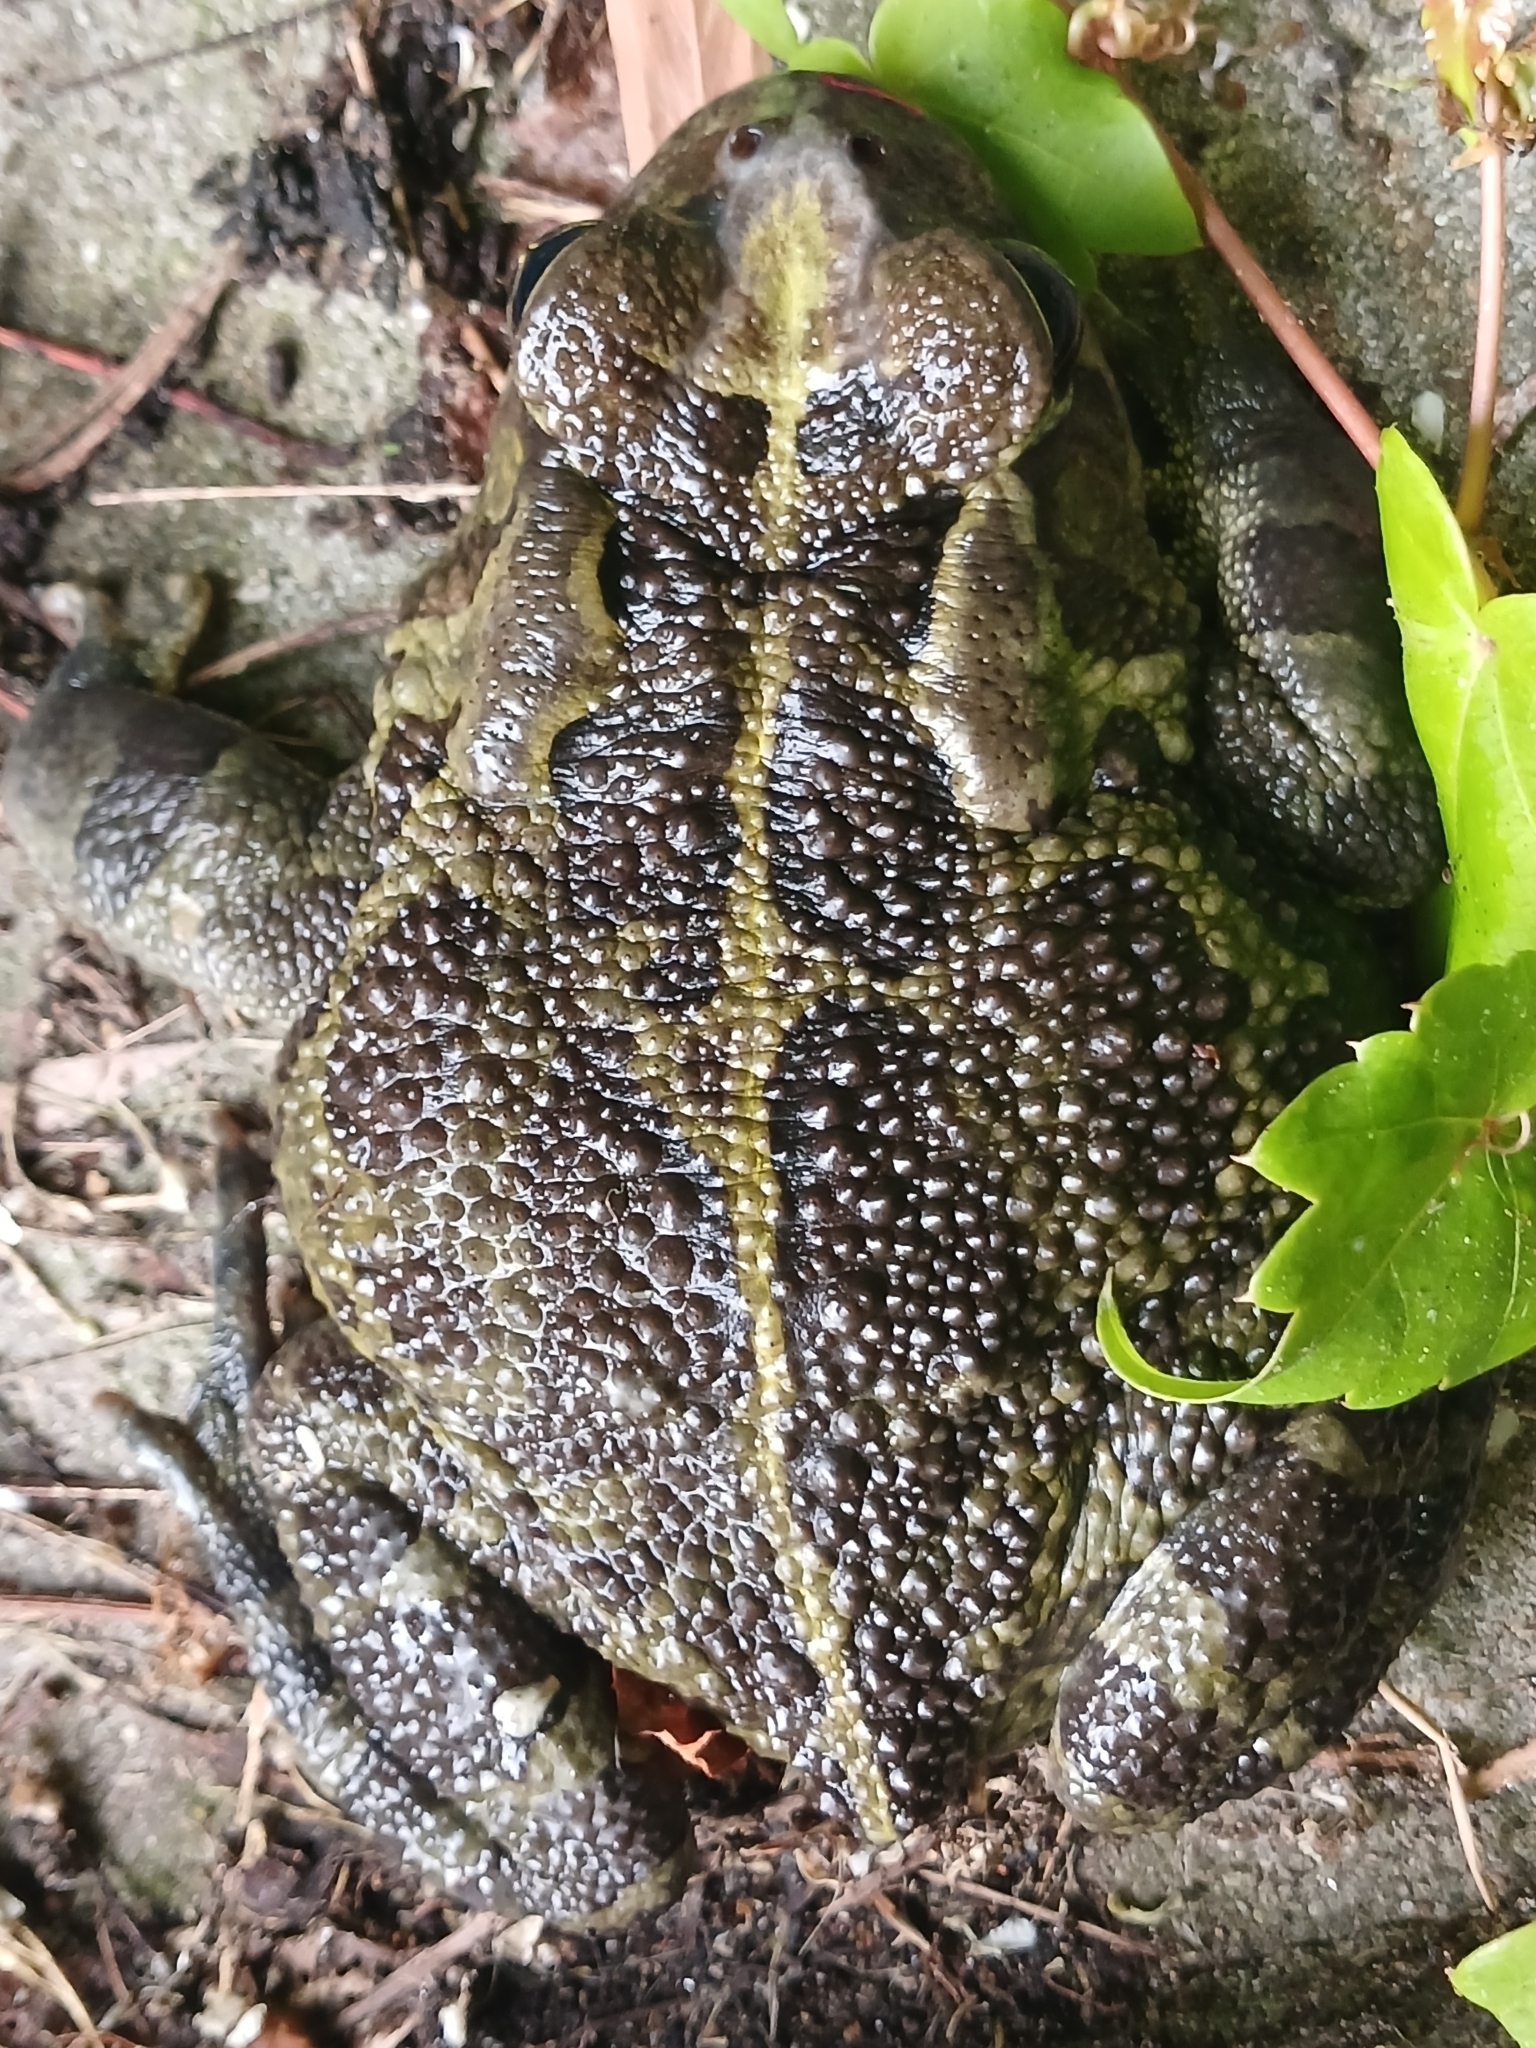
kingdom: Animalia
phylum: Chordata
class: Amphibia
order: Anura
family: Bufonidae
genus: Sclerophrys
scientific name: Sclerophrys pantherina
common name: Panther toad
